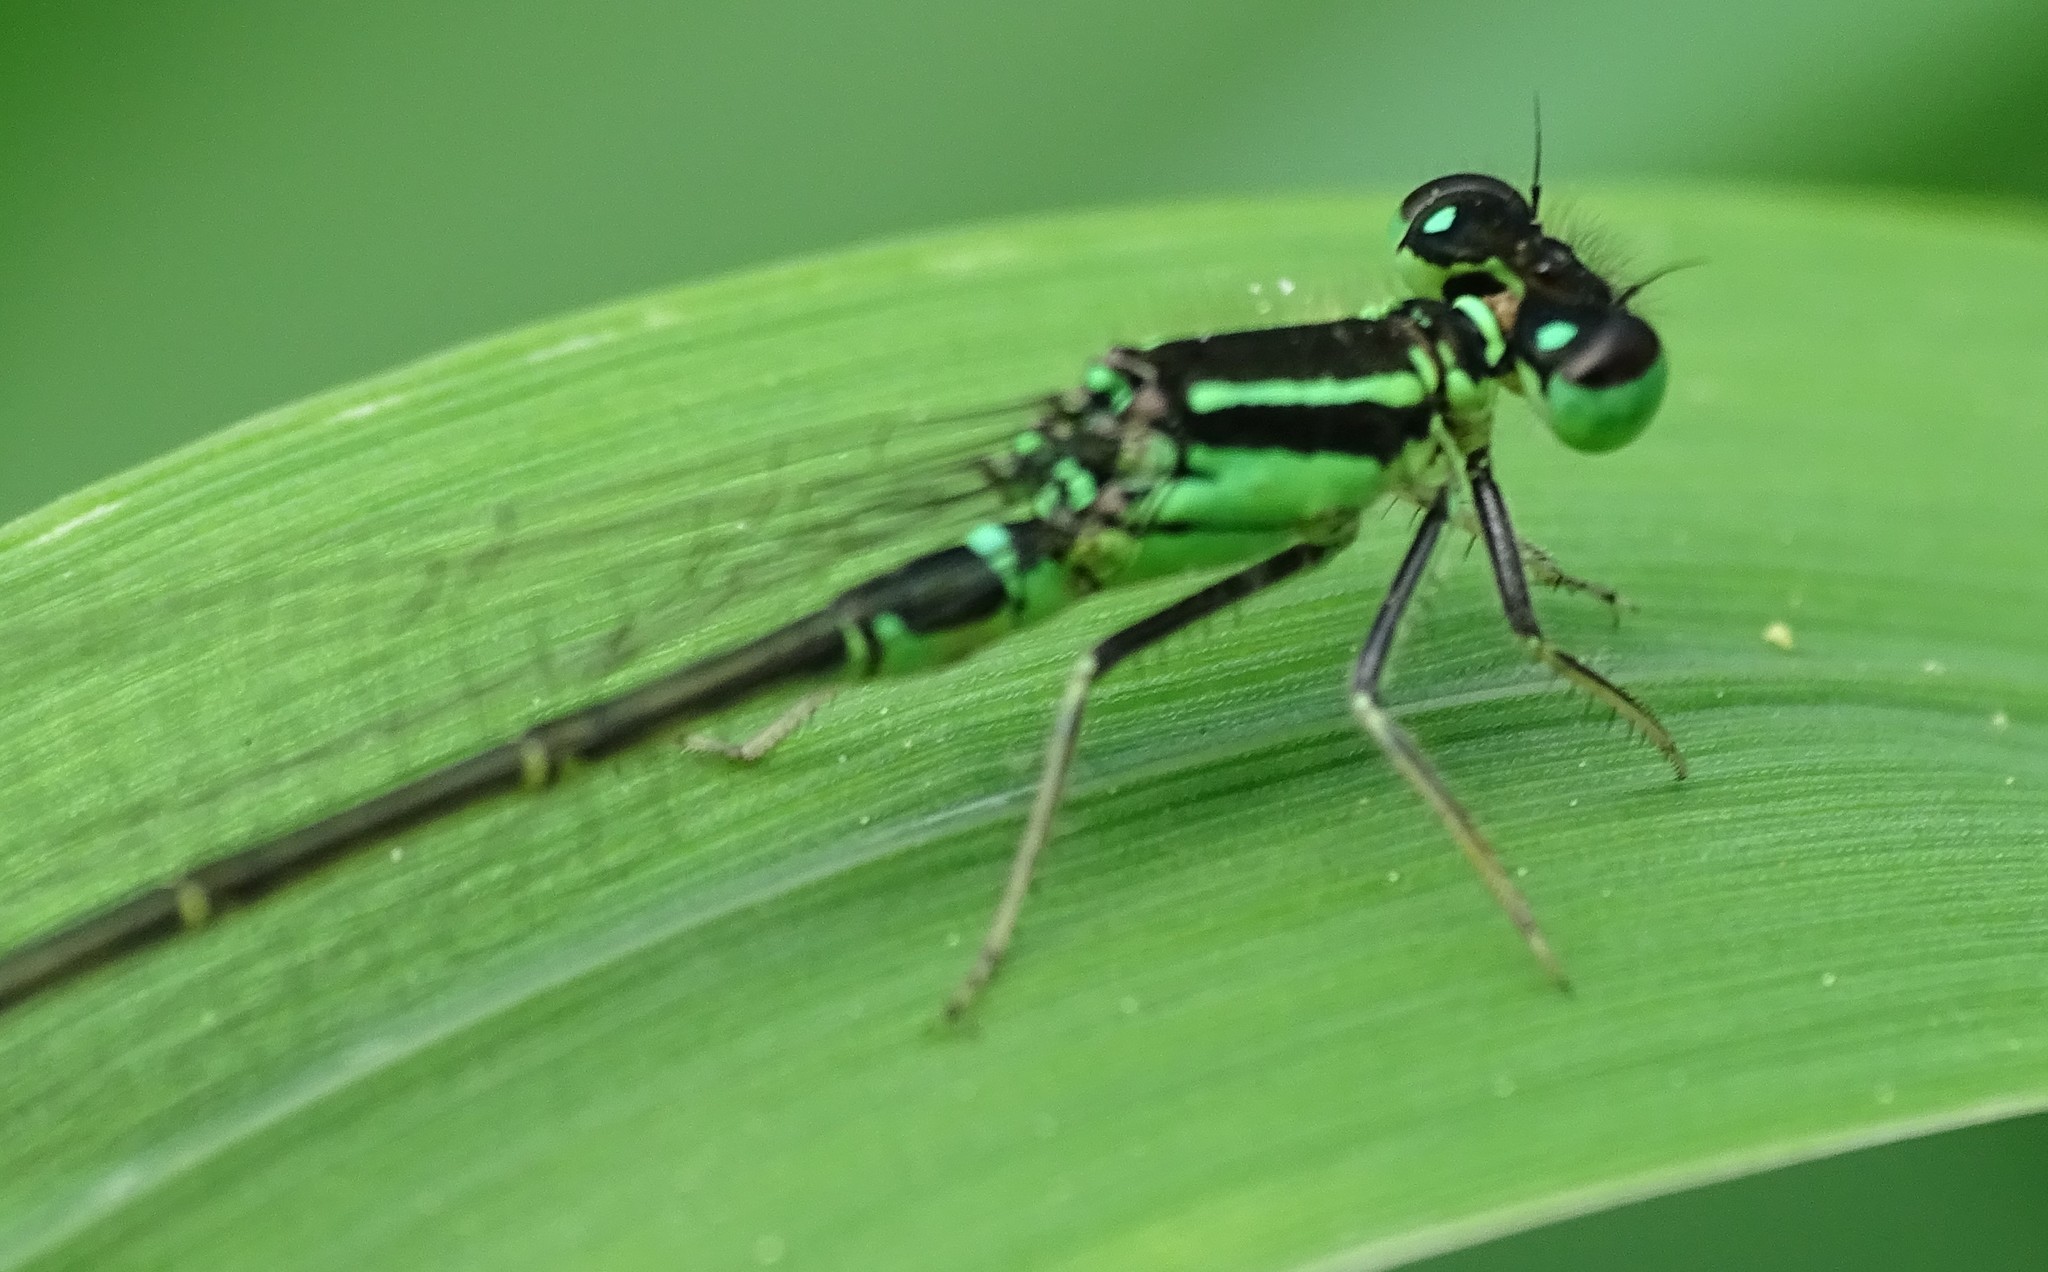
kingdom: Animalia
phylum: Arthropoda
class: Insecta
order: Odonata
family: Coenagrionidae
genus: Ischnura
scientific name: Ischnura verticalis
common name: Eastern forktail
